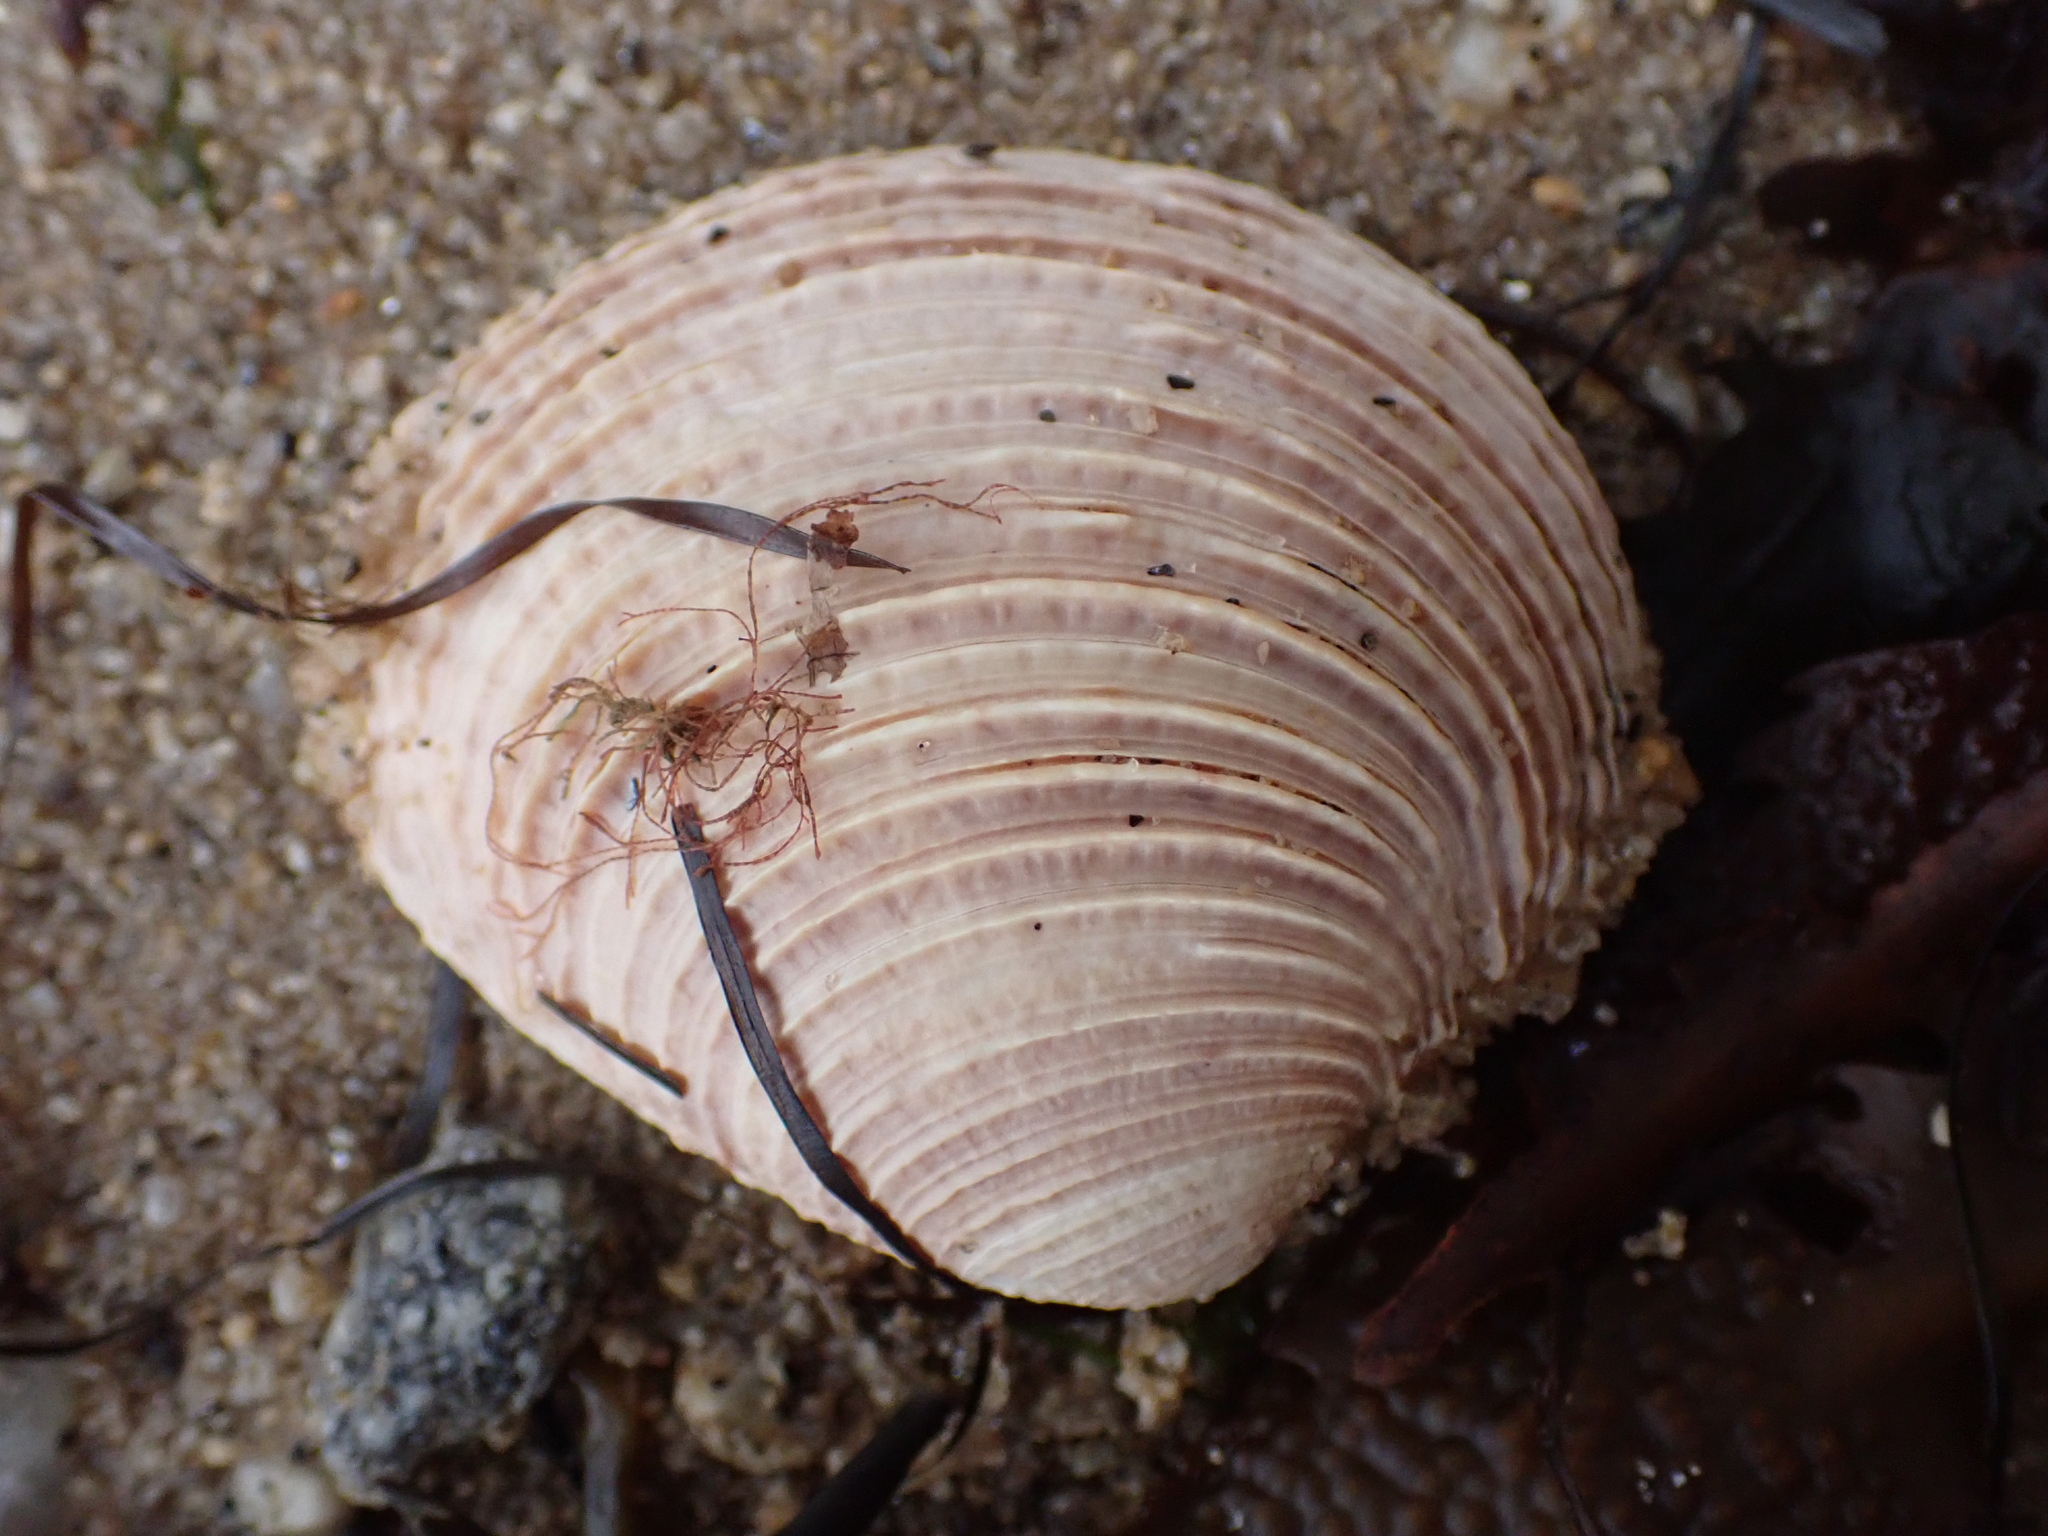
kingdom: Animalia
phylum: Mollusca
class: Bivalvia
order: Venerida
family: Veneridae
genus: Venus
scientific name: Venus verrucosa
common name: Warty venus
